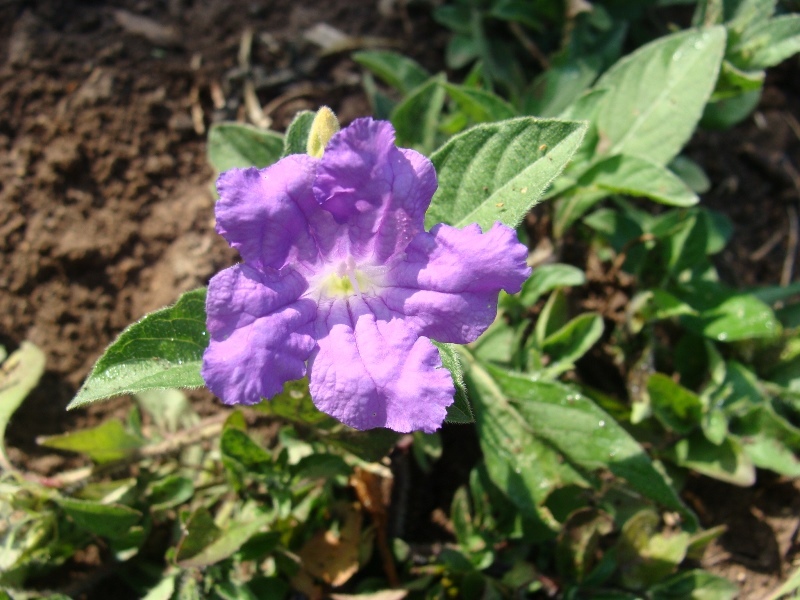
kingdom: Plantae
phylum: Tracheophyta
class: Magnoliopsida
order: Lamiales
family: Acanthaceae
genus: Ruellia
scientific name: Ruellia lactea
